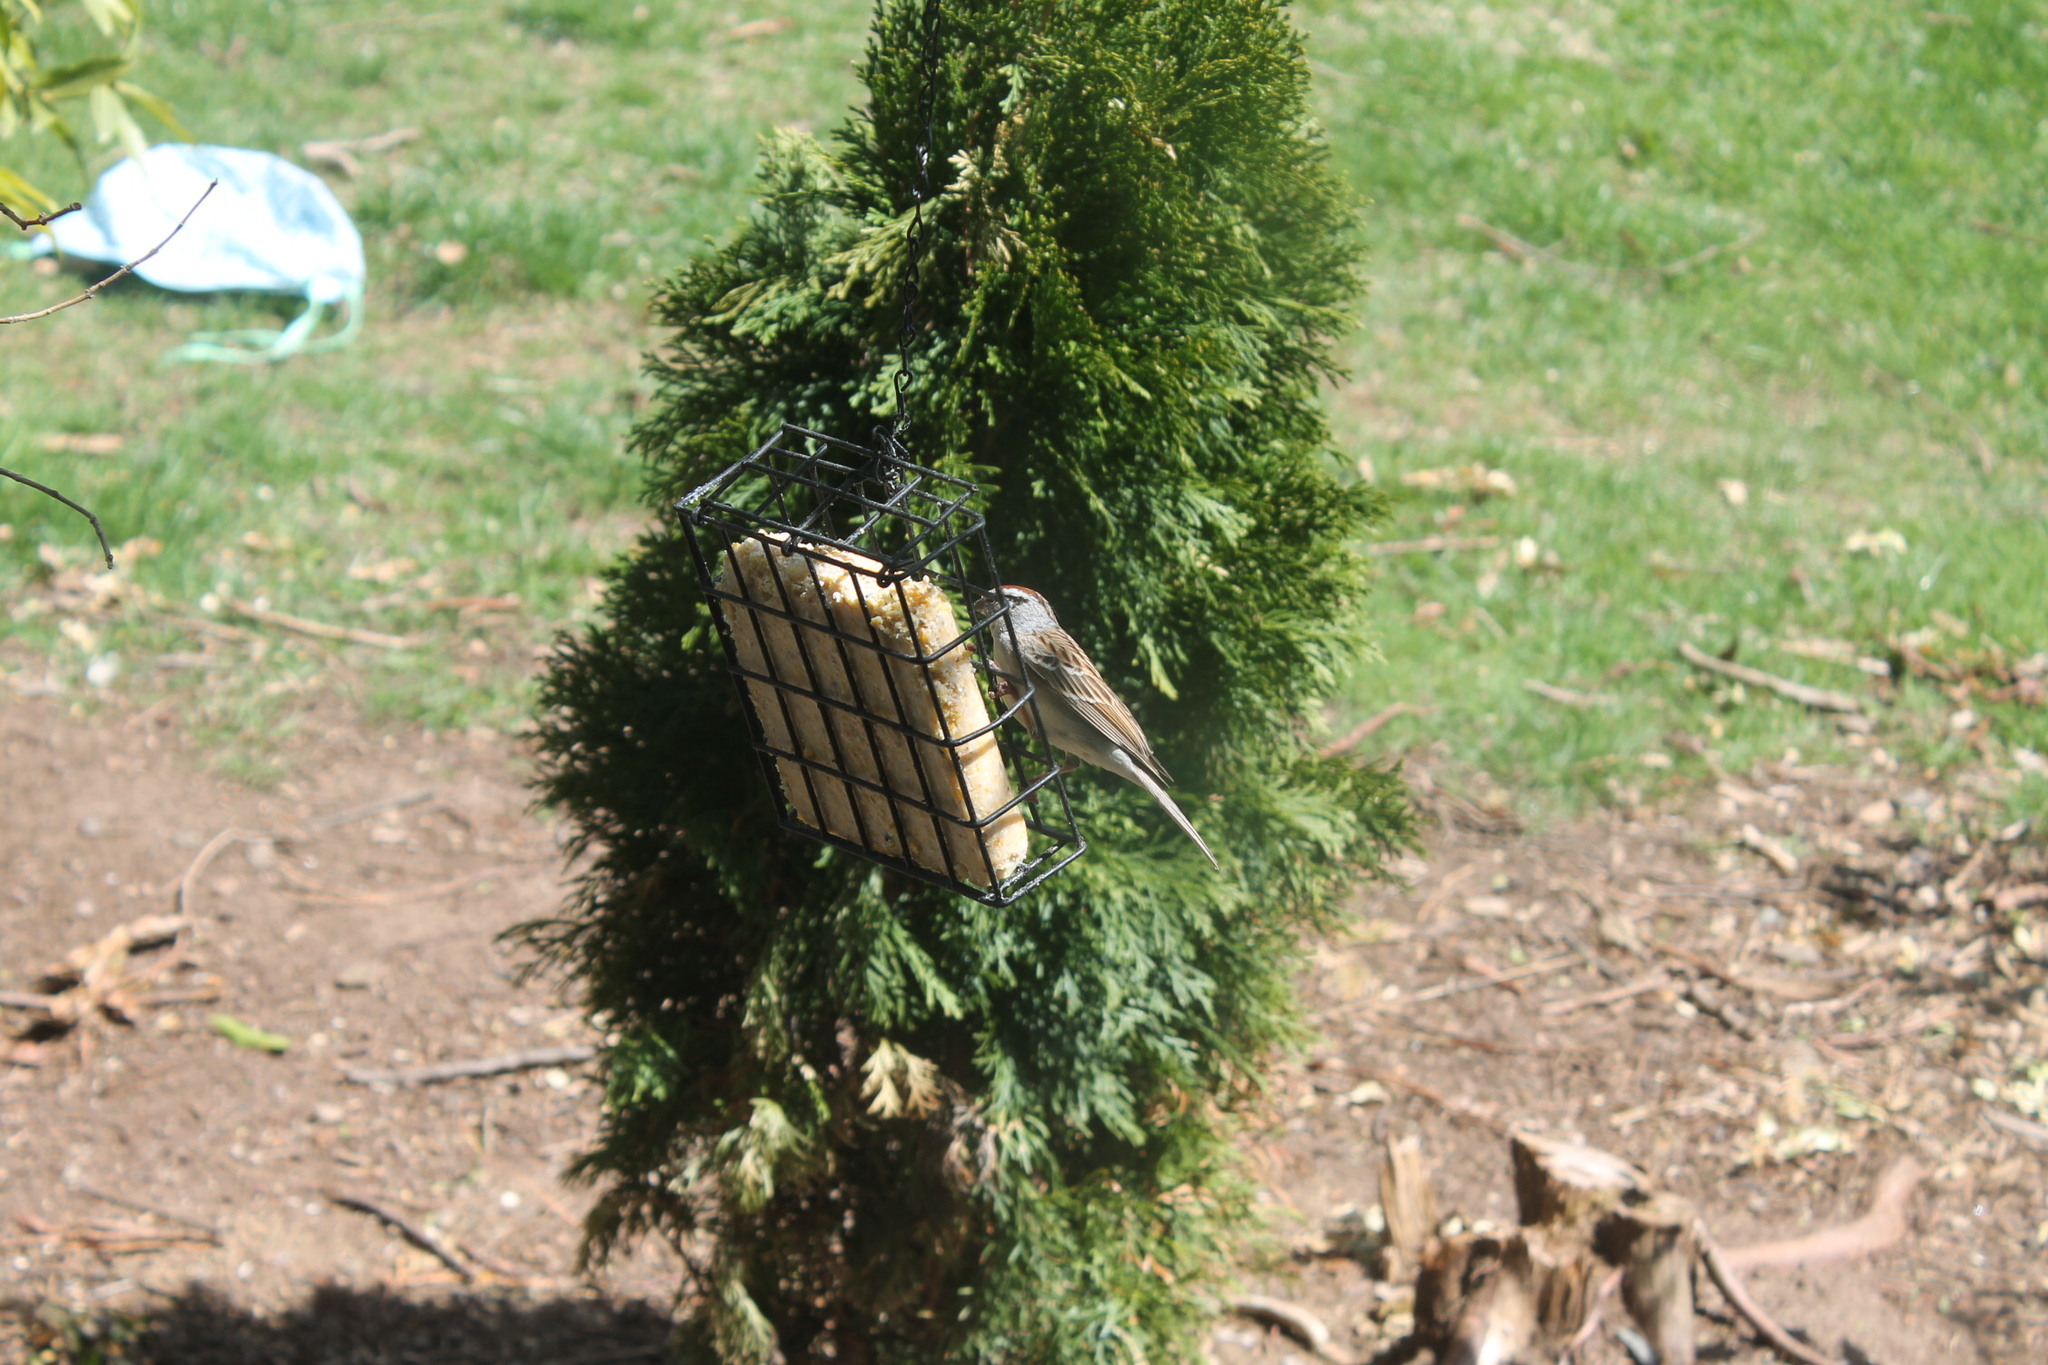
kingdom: Animalia
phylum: Chordata
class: Aves
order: Passeriformes
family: Passerellidae
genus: Spizella
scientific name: Spizella passerina
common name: Chipping sparrow
